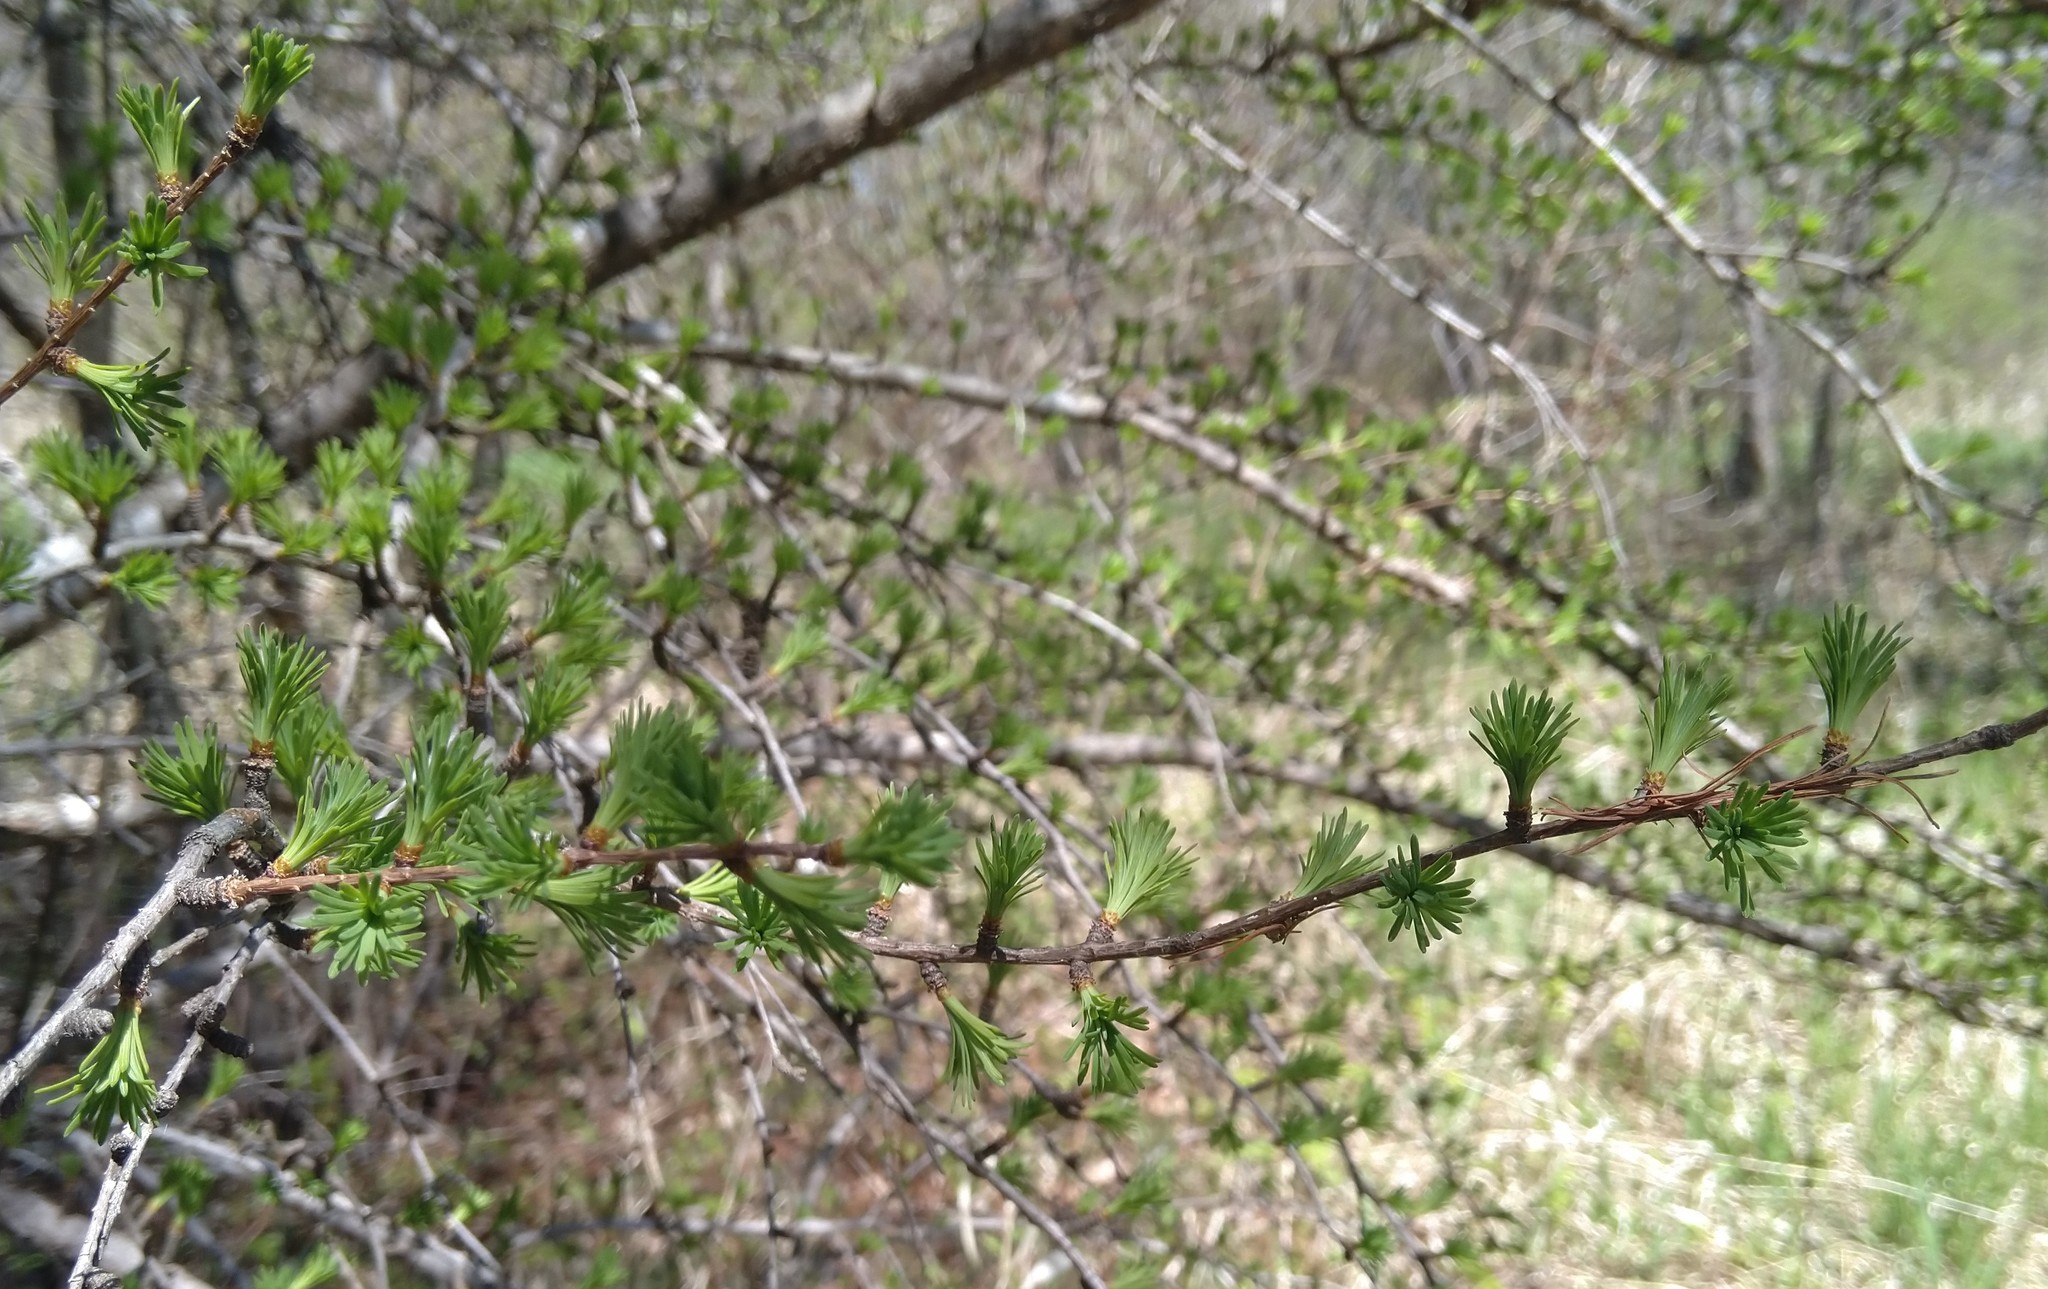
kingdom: Plantae
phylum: Tracheophyta
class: Pinopsida
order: Pinales
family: Pinaceae
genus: Larix
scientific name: Larix laricina
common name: American larch
